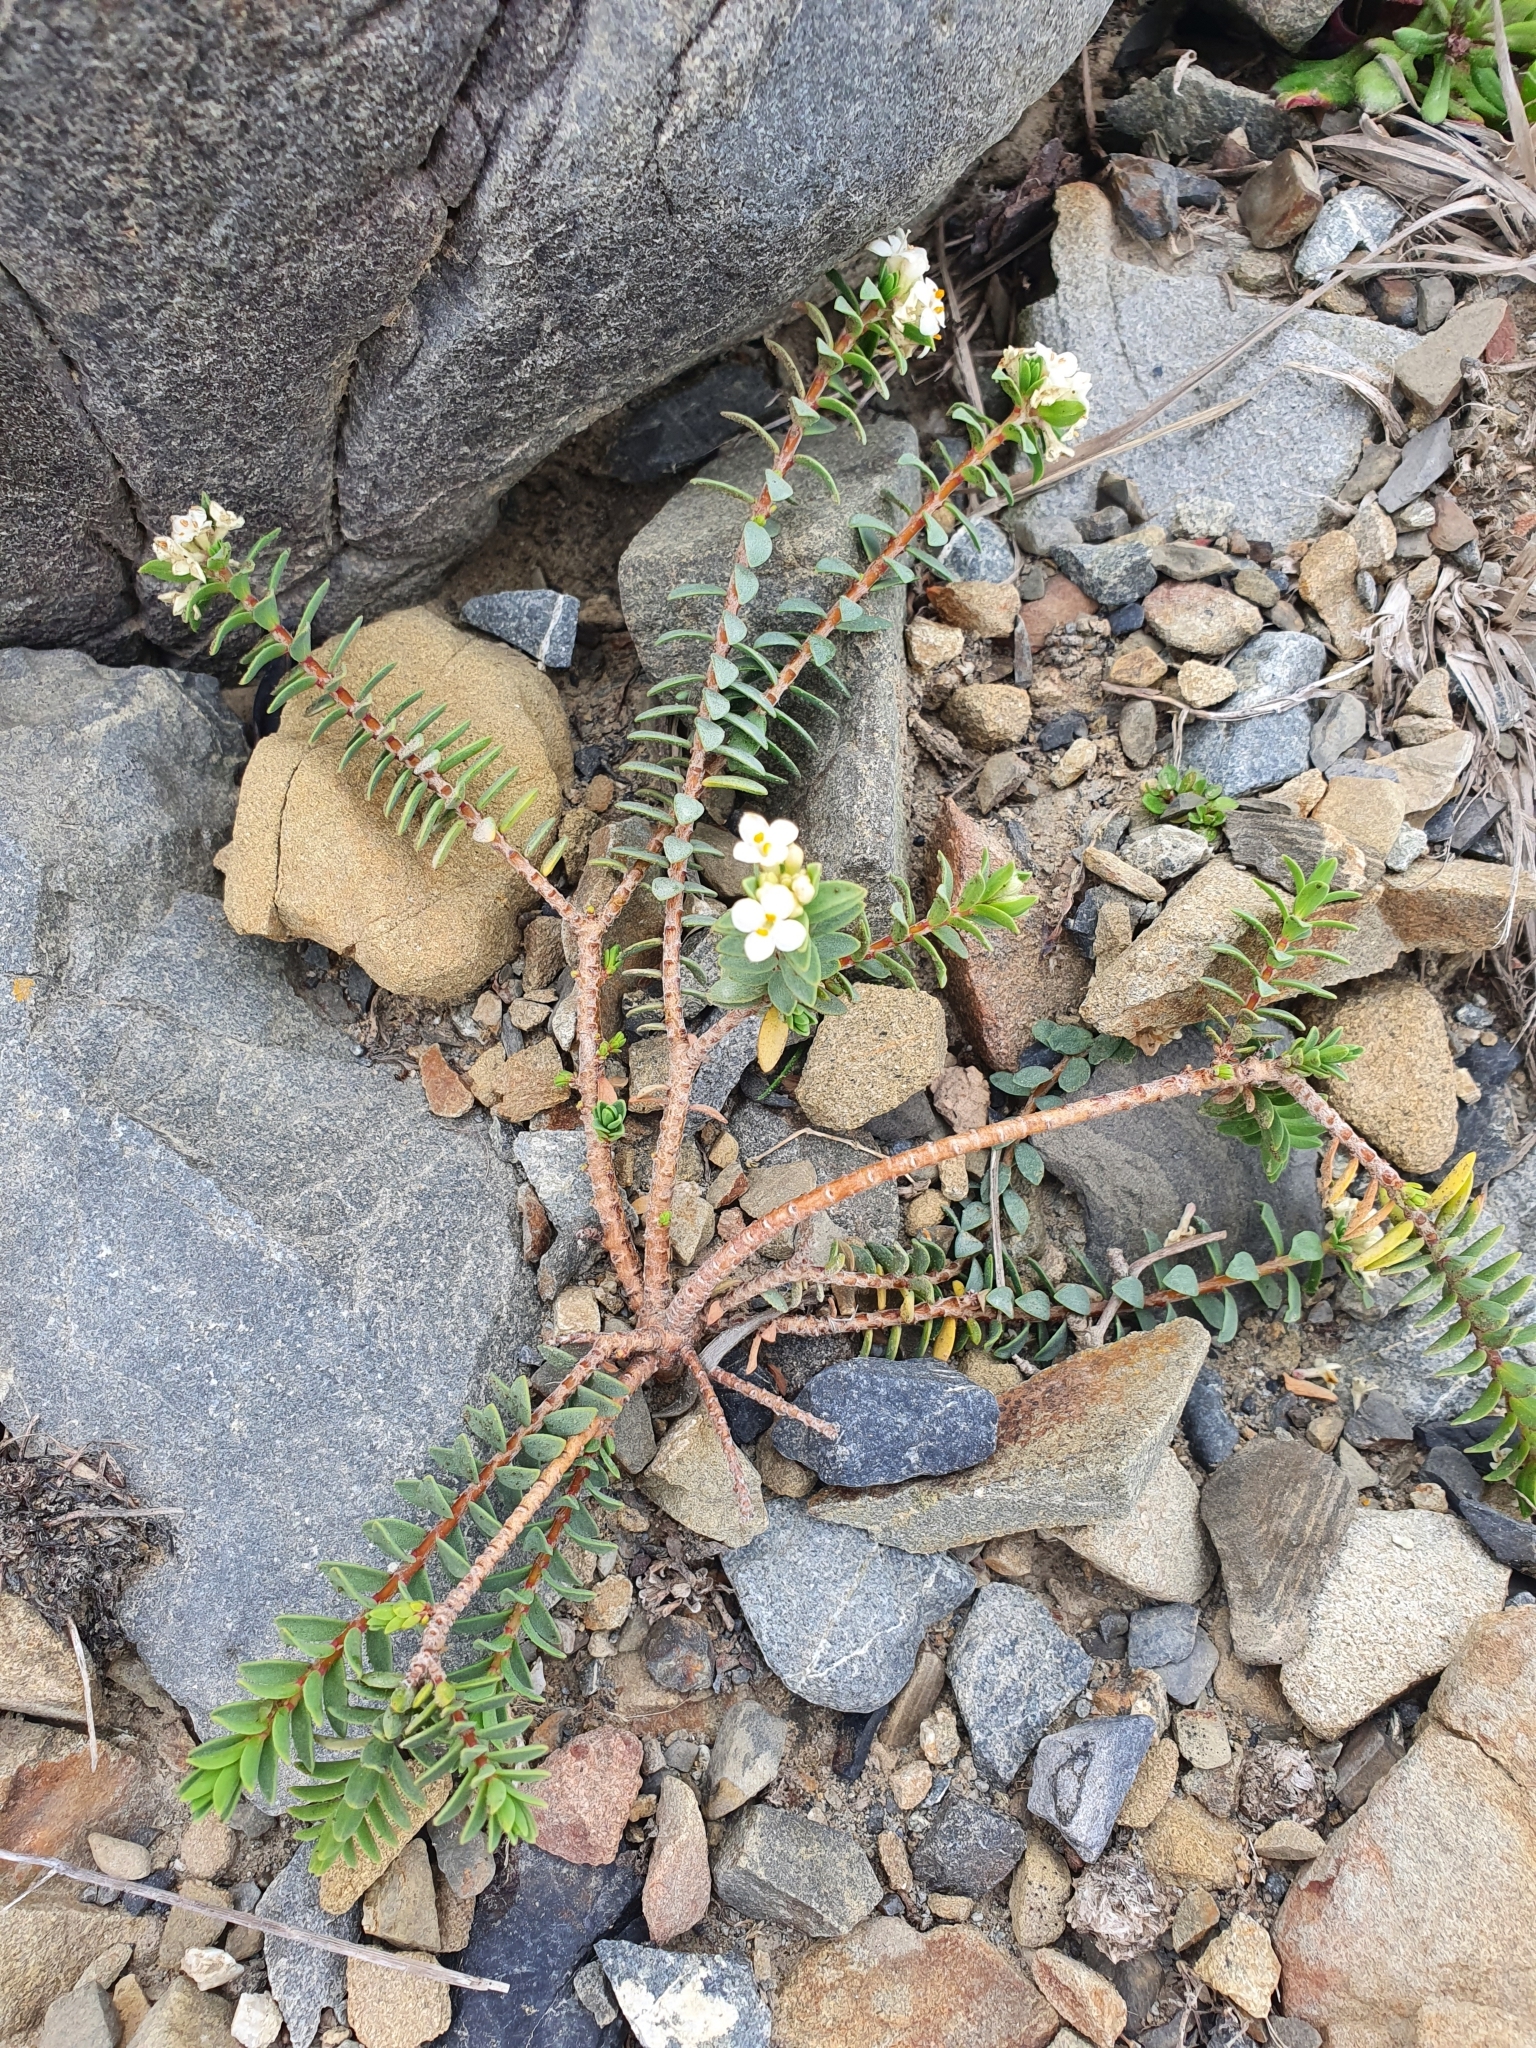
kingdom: Plantae
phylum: Tracheophyta
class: Magnoliopsida
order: Malvales
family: Thymelaeaceae
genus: Pimelea
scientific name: Pimelea villosa
